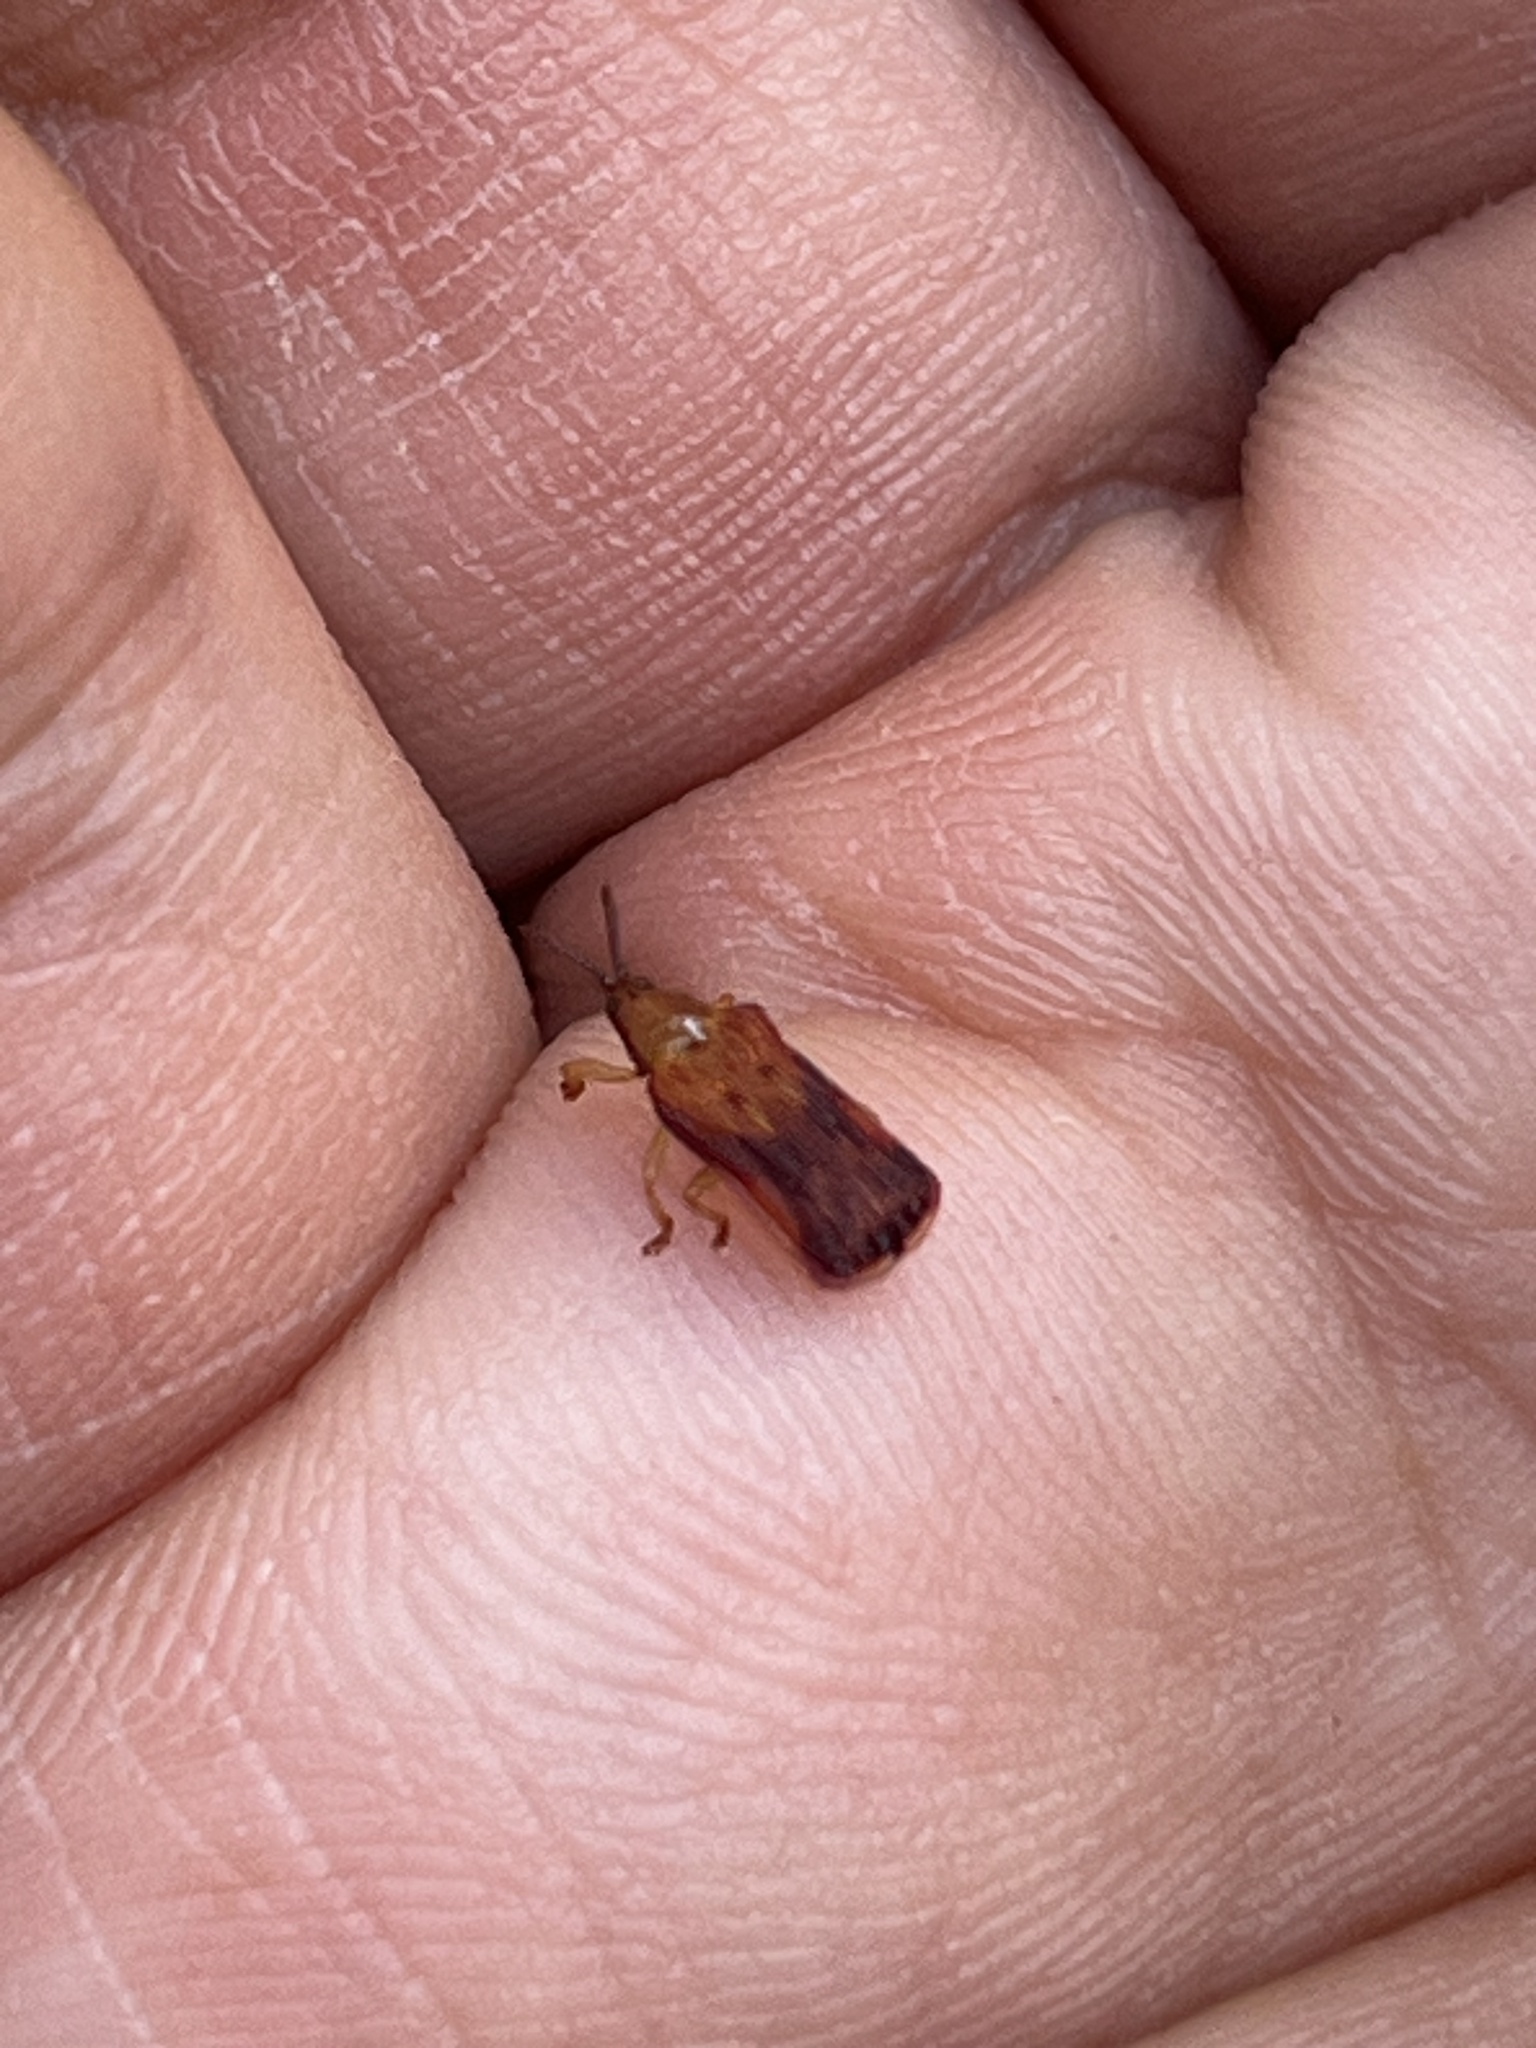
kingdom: Animalia
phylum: Arthropoda
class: Insecta
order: Coleoptera
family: Chrysomelidae
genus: Baliosus
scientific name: Baliosus nervosus
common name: Basswood leaf miner
